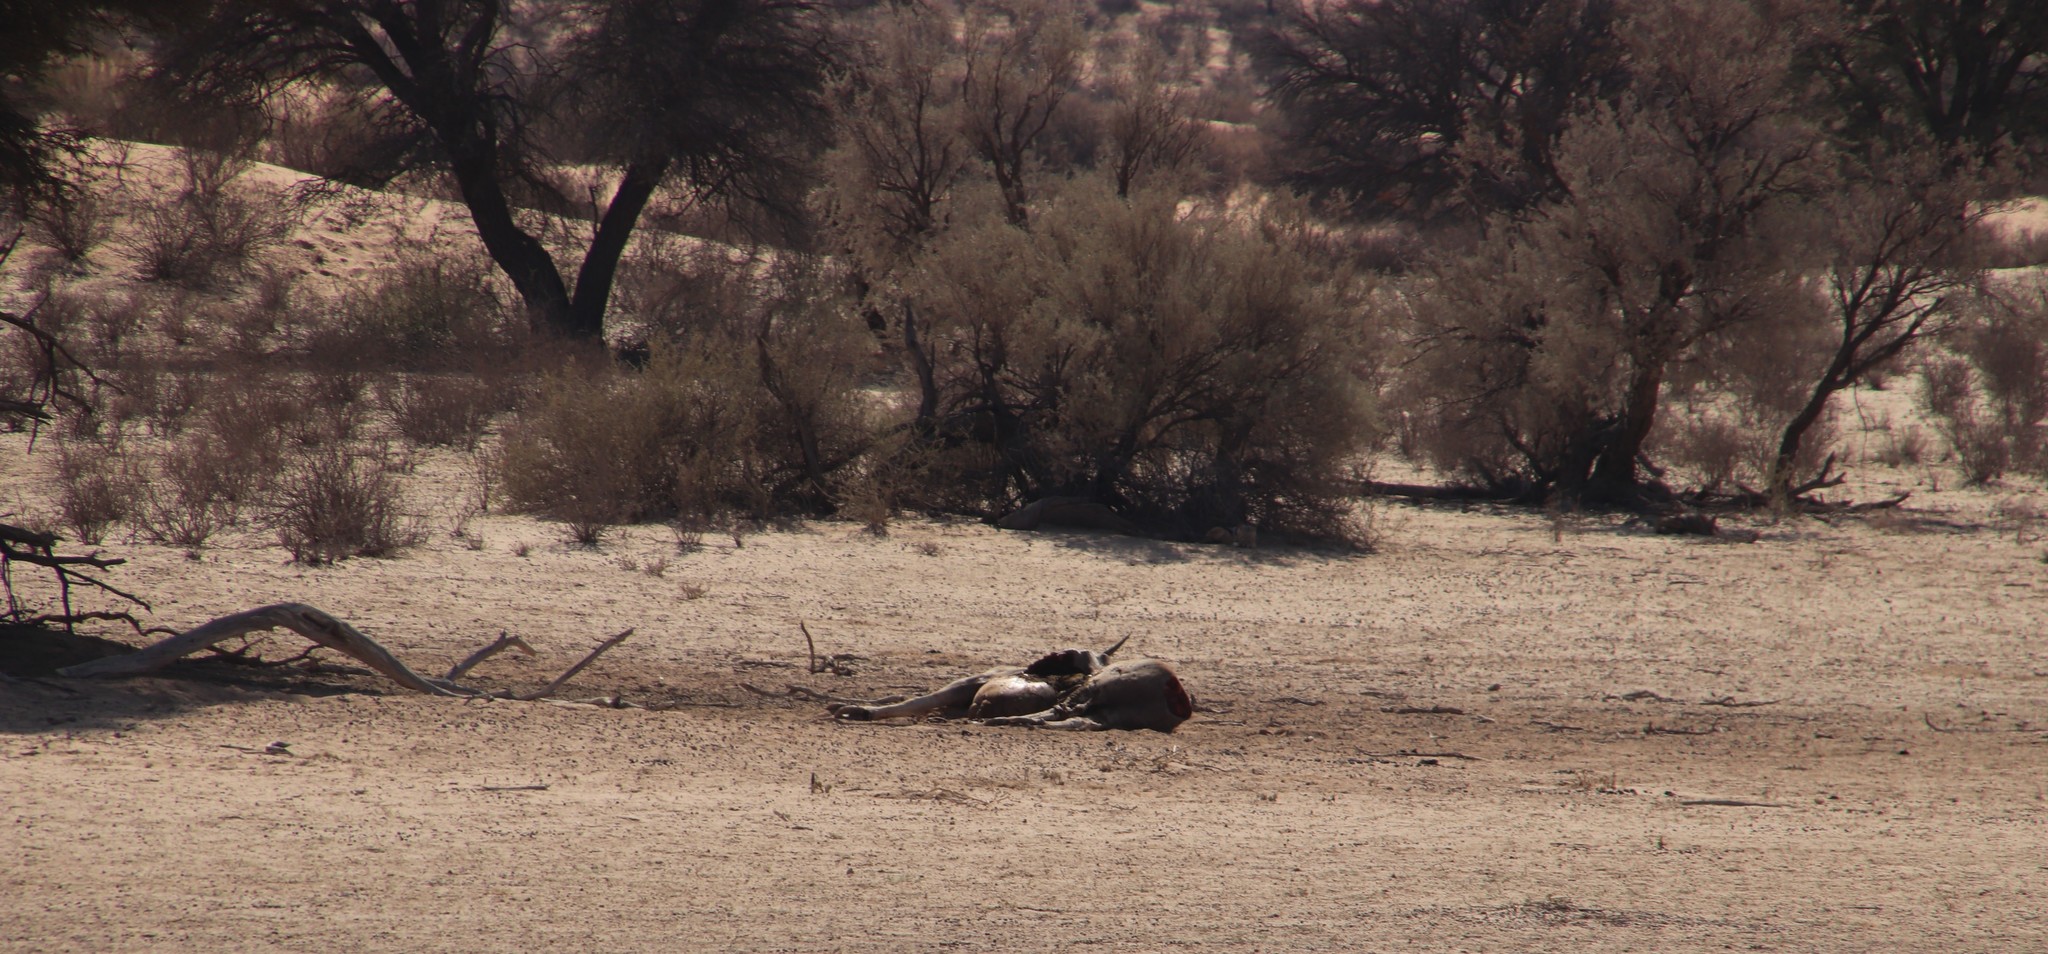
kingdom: Animalia
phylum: Chordata
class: Mammalia
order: Artiodactyla
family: Bovidae
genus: Taurotragus
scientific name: Taurotragus oryx
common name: Common eland
